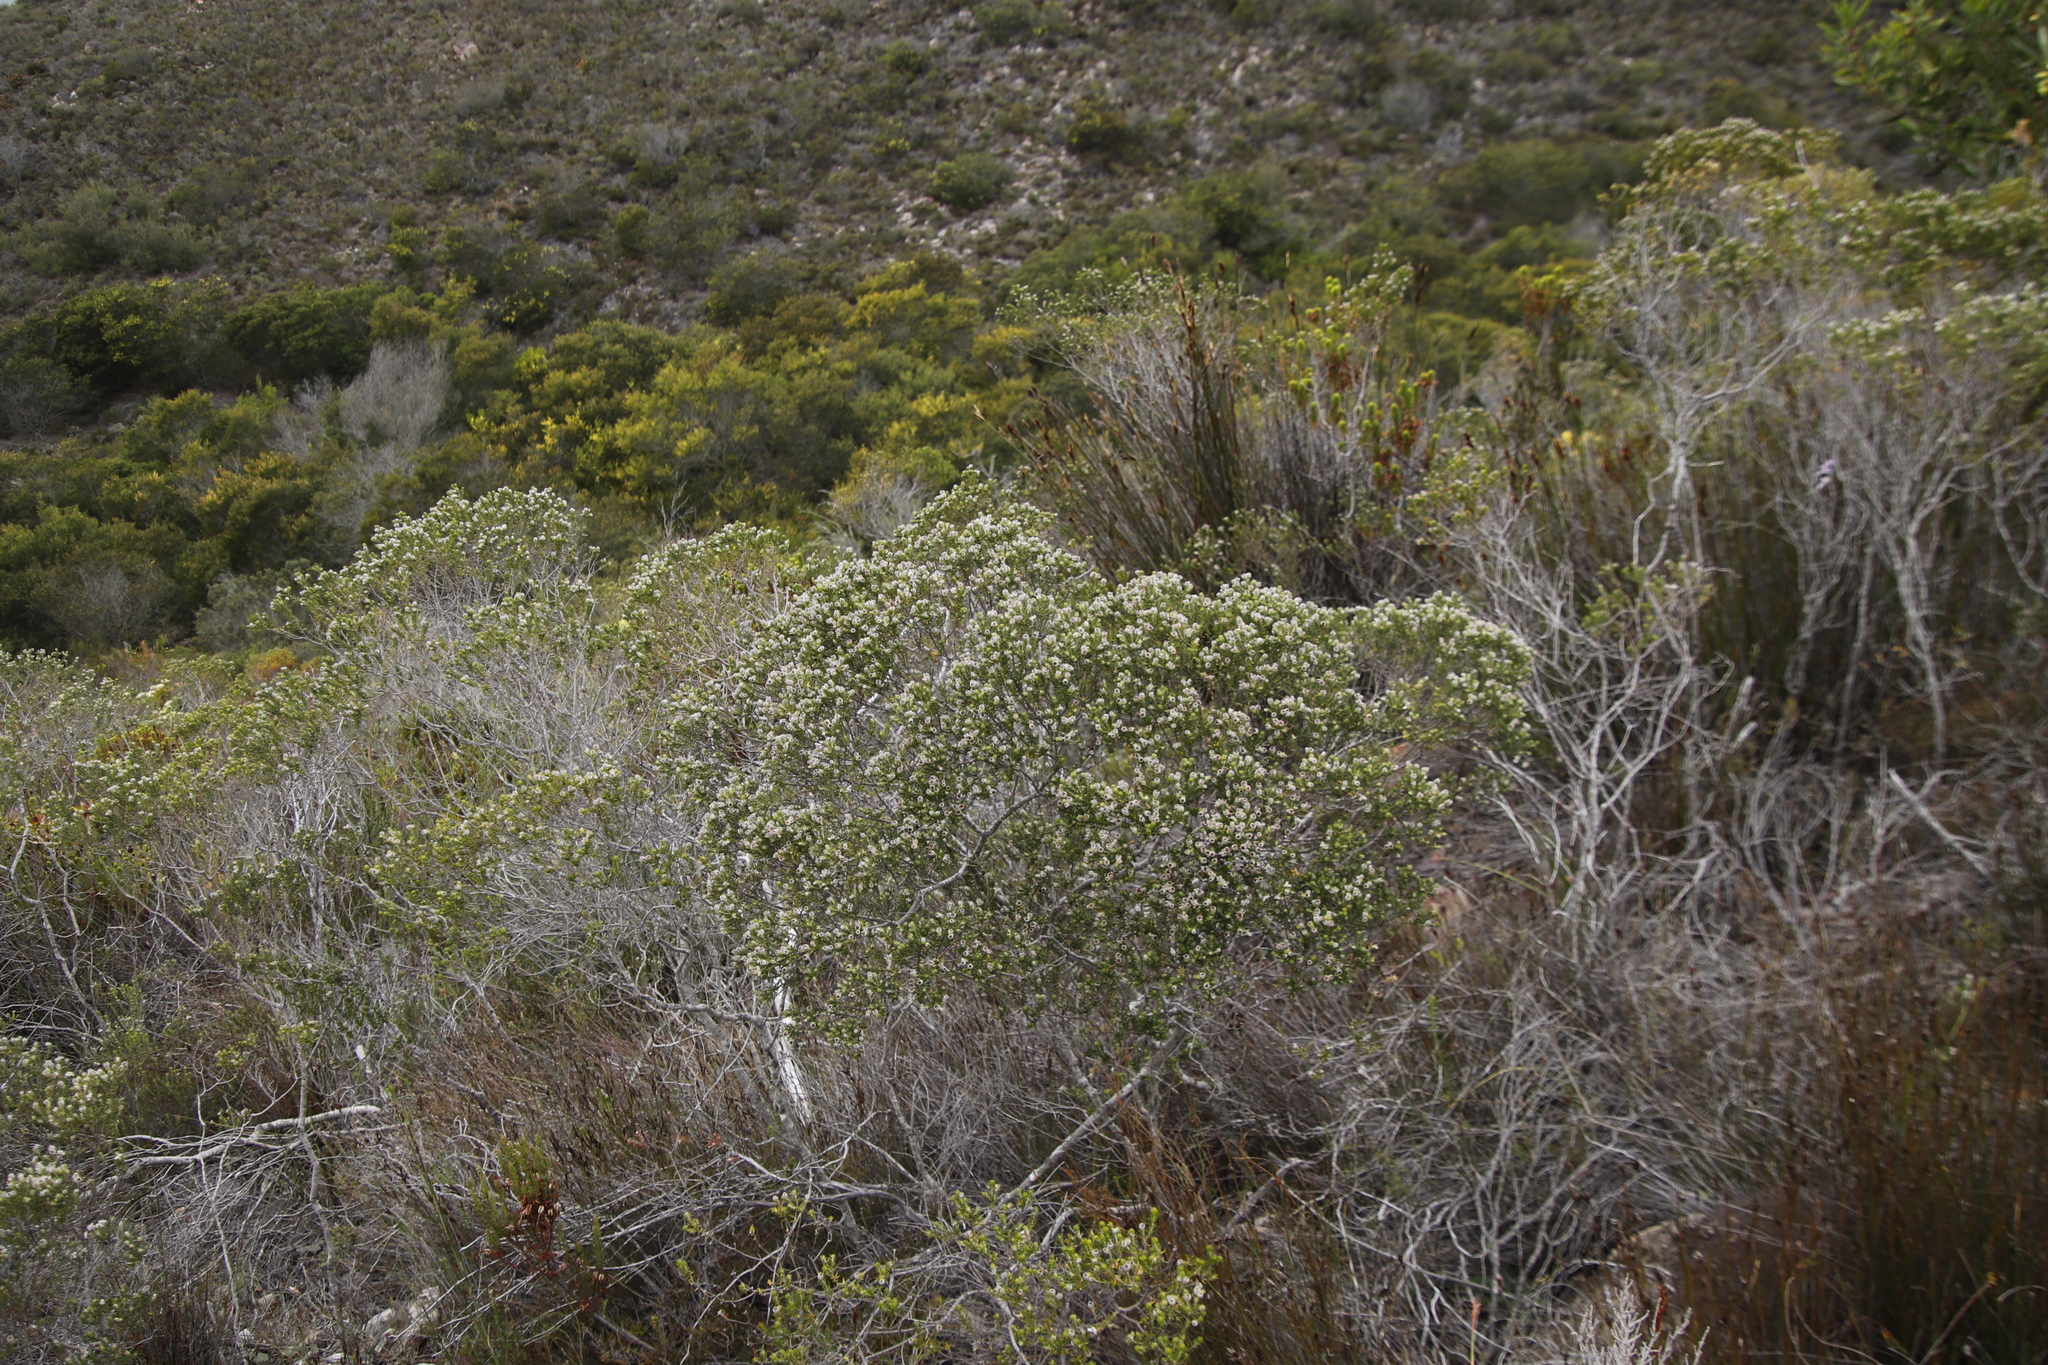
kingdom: Plantae
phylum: Tracheophyta
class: Magnoliopsida
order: Rosales
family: Rhamnaceae
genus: Phylica
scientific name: Phylica purpurea
